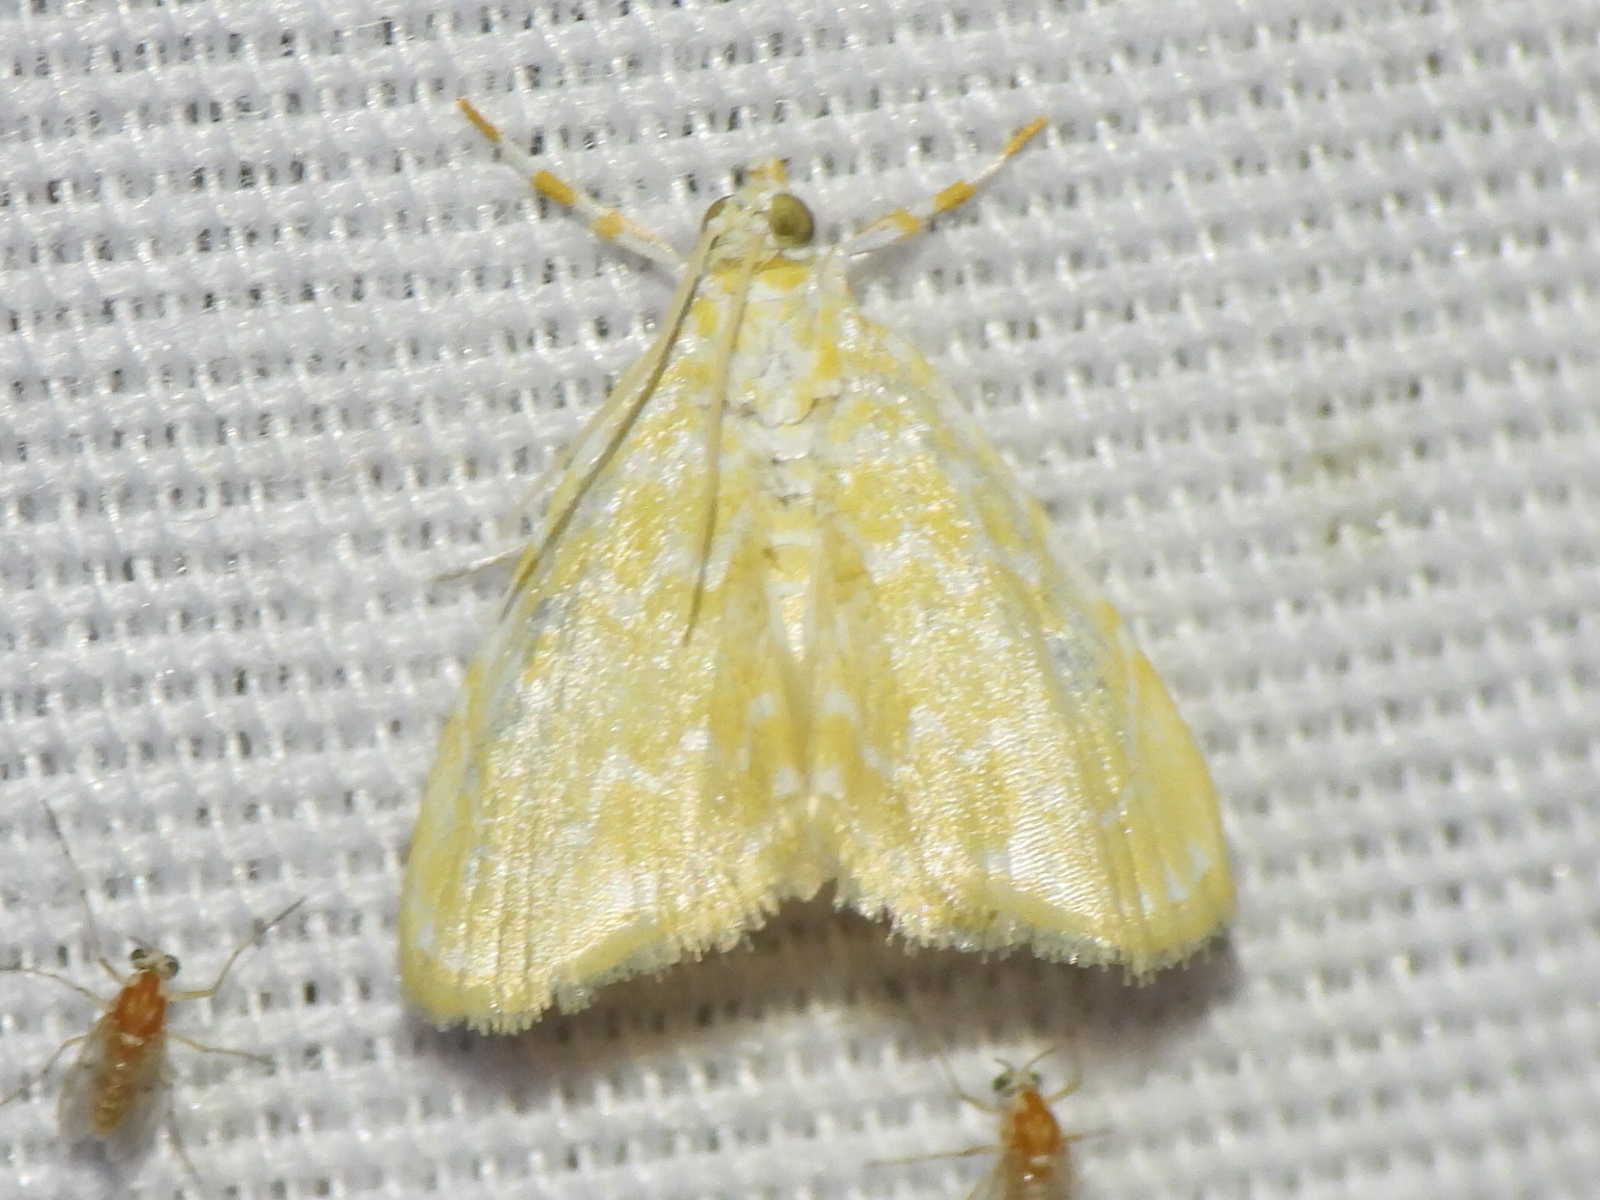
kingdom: Animalia
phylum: Arthropoda
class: Insecta
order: Lepidoptera
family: Crambidae
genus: Glaphyria
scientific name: Glaphyria glaphyralis
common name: Common glaphyria moth
